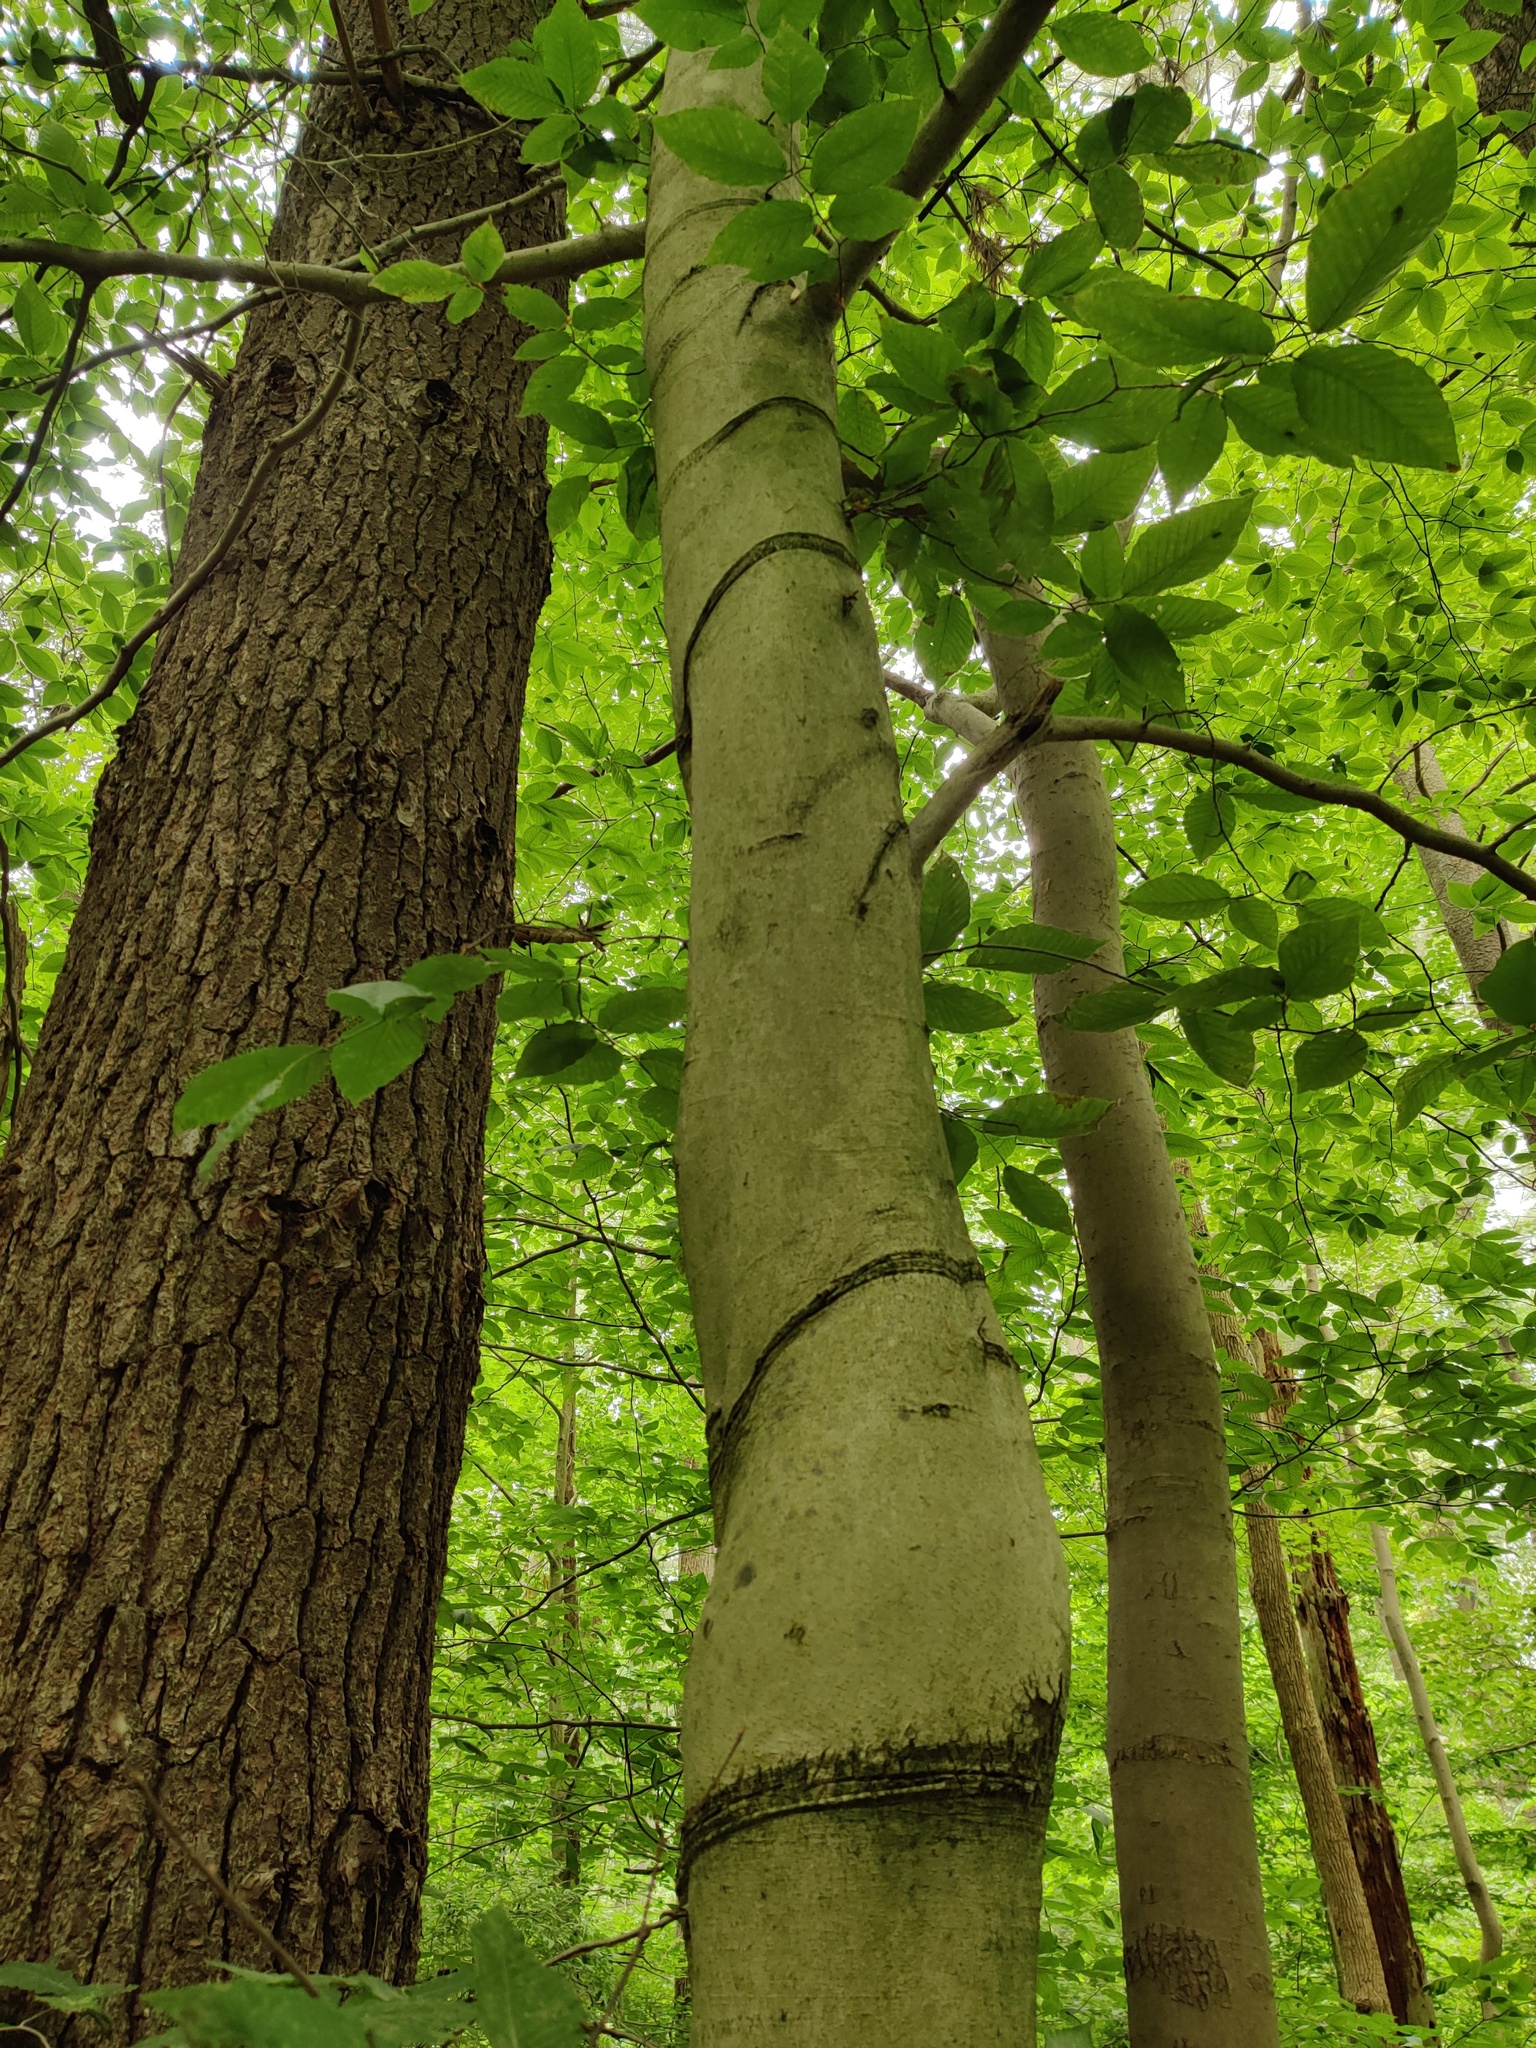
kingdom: Plantae
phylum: Tracheophyta
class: Magnoliopsida
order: Fagales
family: Fagaceae
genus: Fagus
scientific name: Fagus grandifolia
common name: American beech
